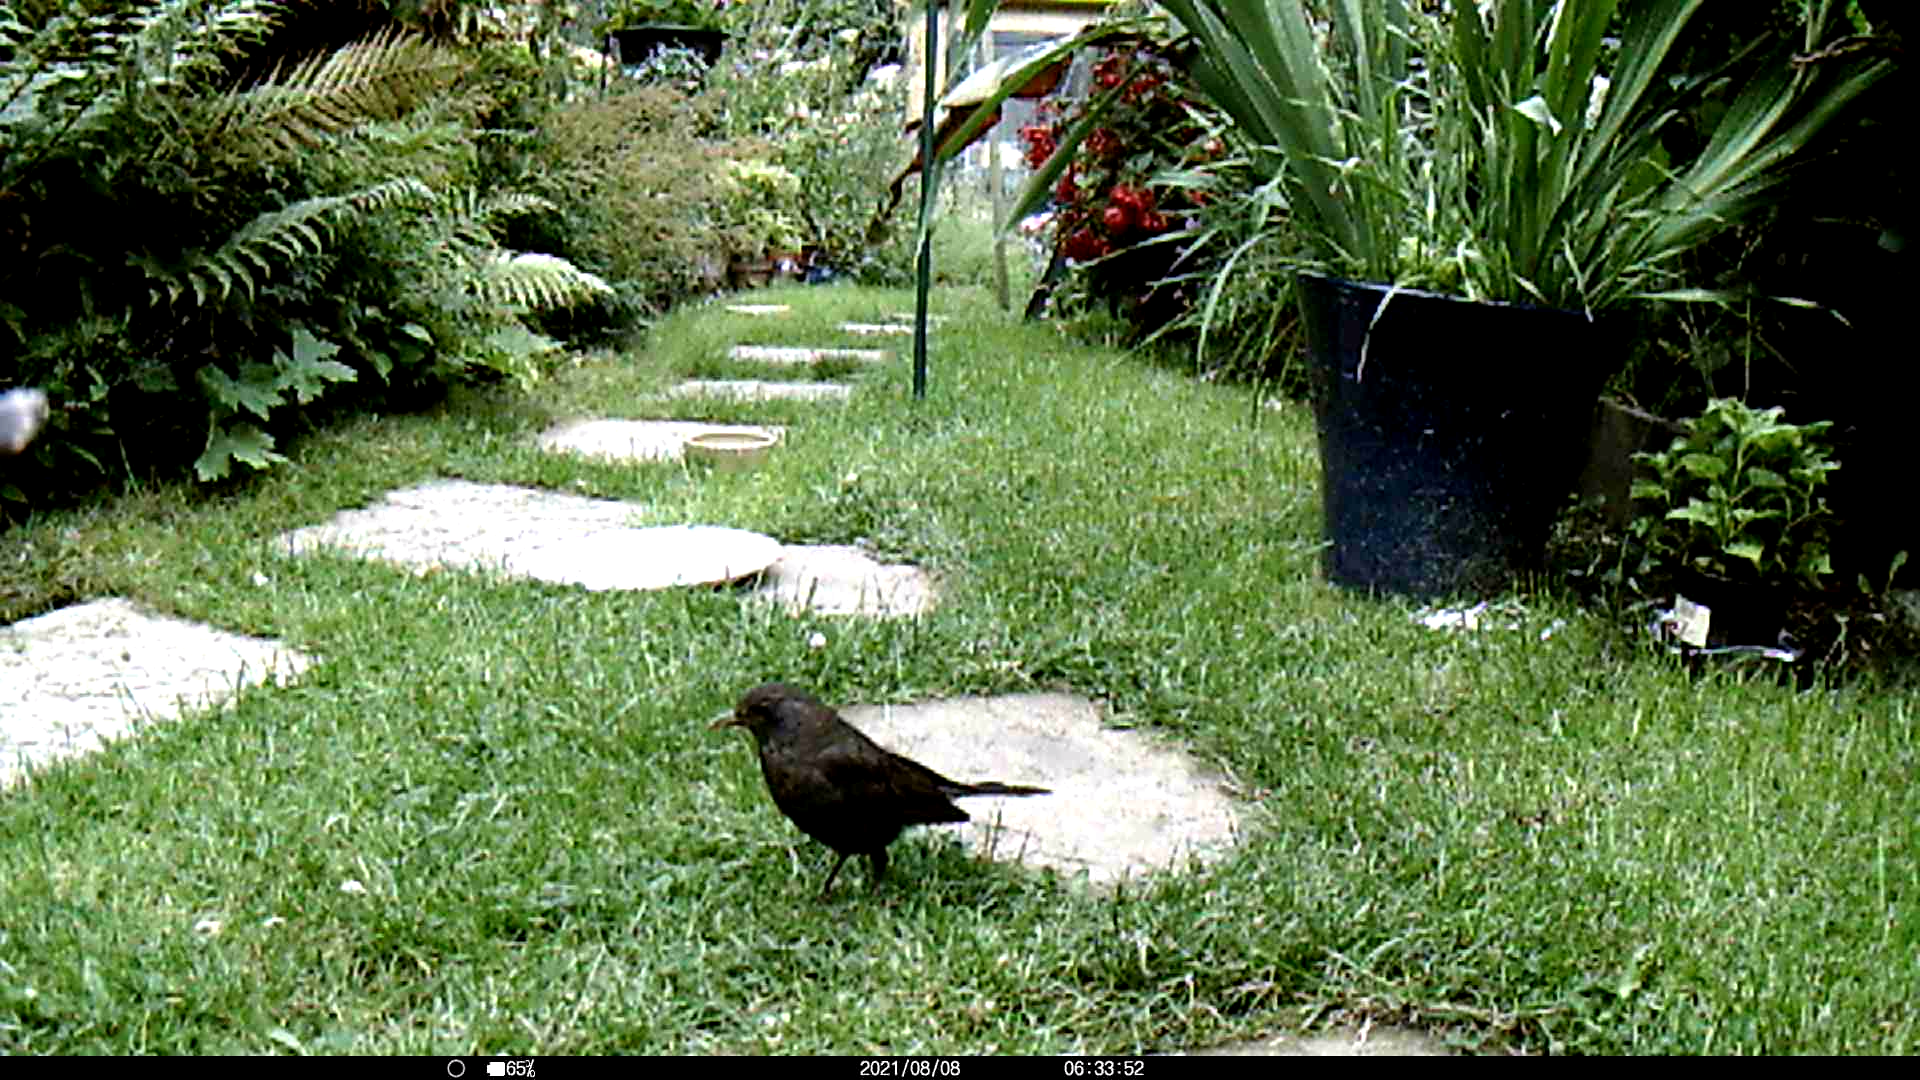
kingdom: Animalia
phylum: Chordata
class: Aves
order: Passeriformes
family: Turdidae
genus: Turdus
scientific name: Turdus merula
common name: Common blackbird
